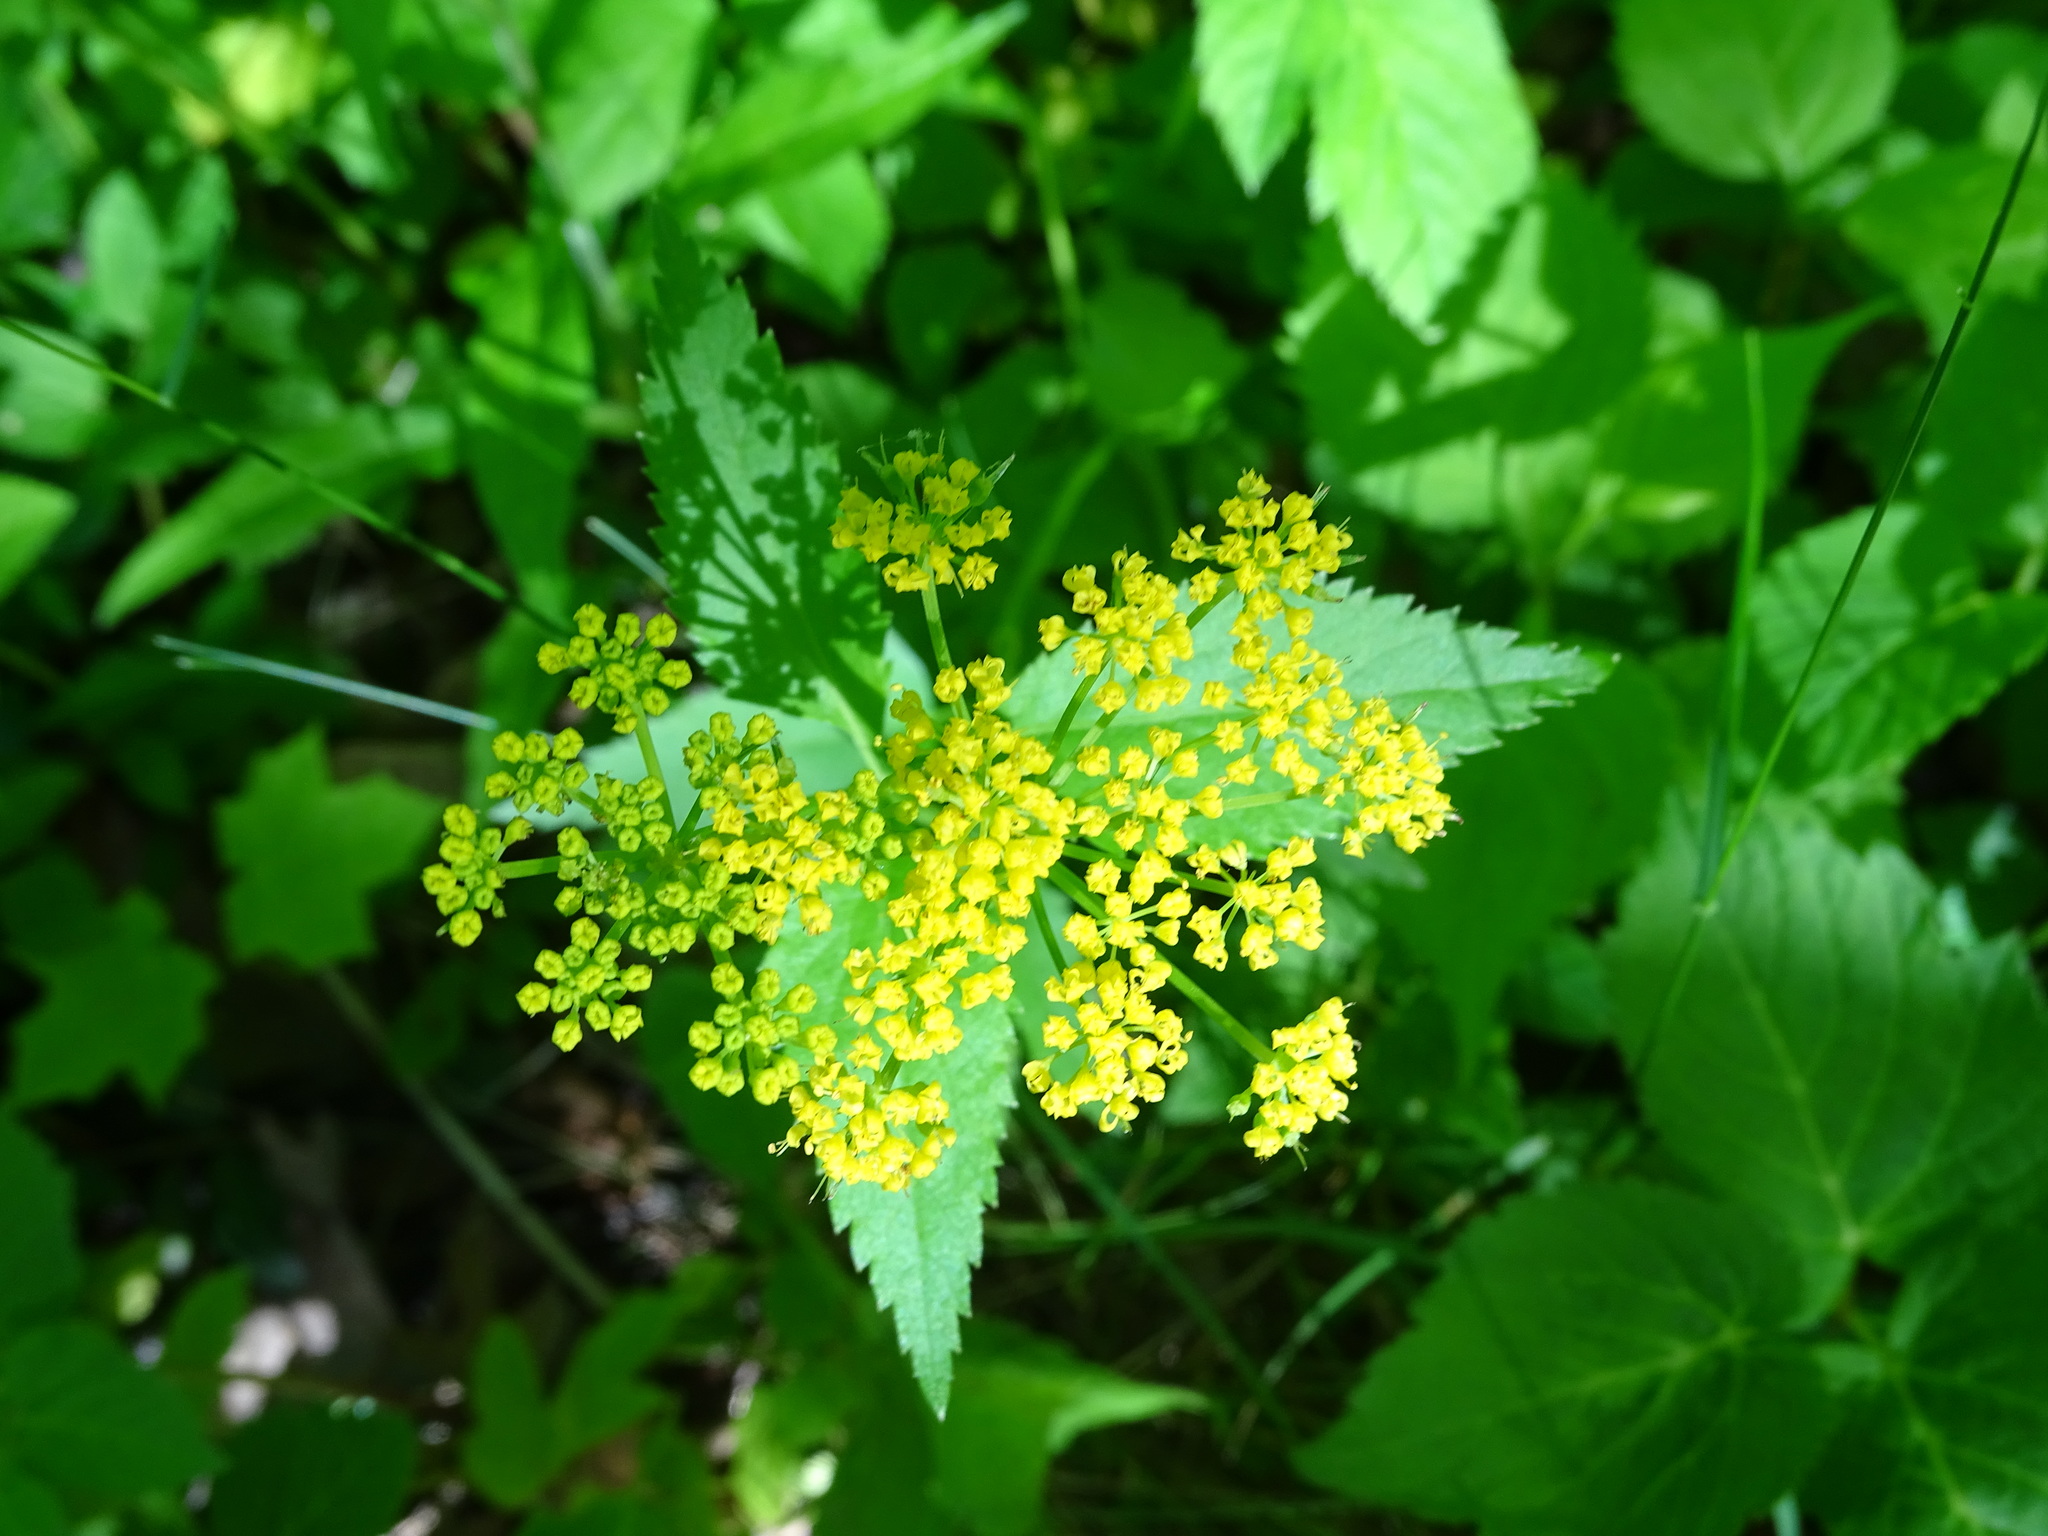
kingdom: Plantae
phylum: Tracheophyta
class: Magnoliopsida
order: Apiales
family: Apiaceae
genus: Zizia
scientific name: Zizia aurea
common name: Golden alexanders
